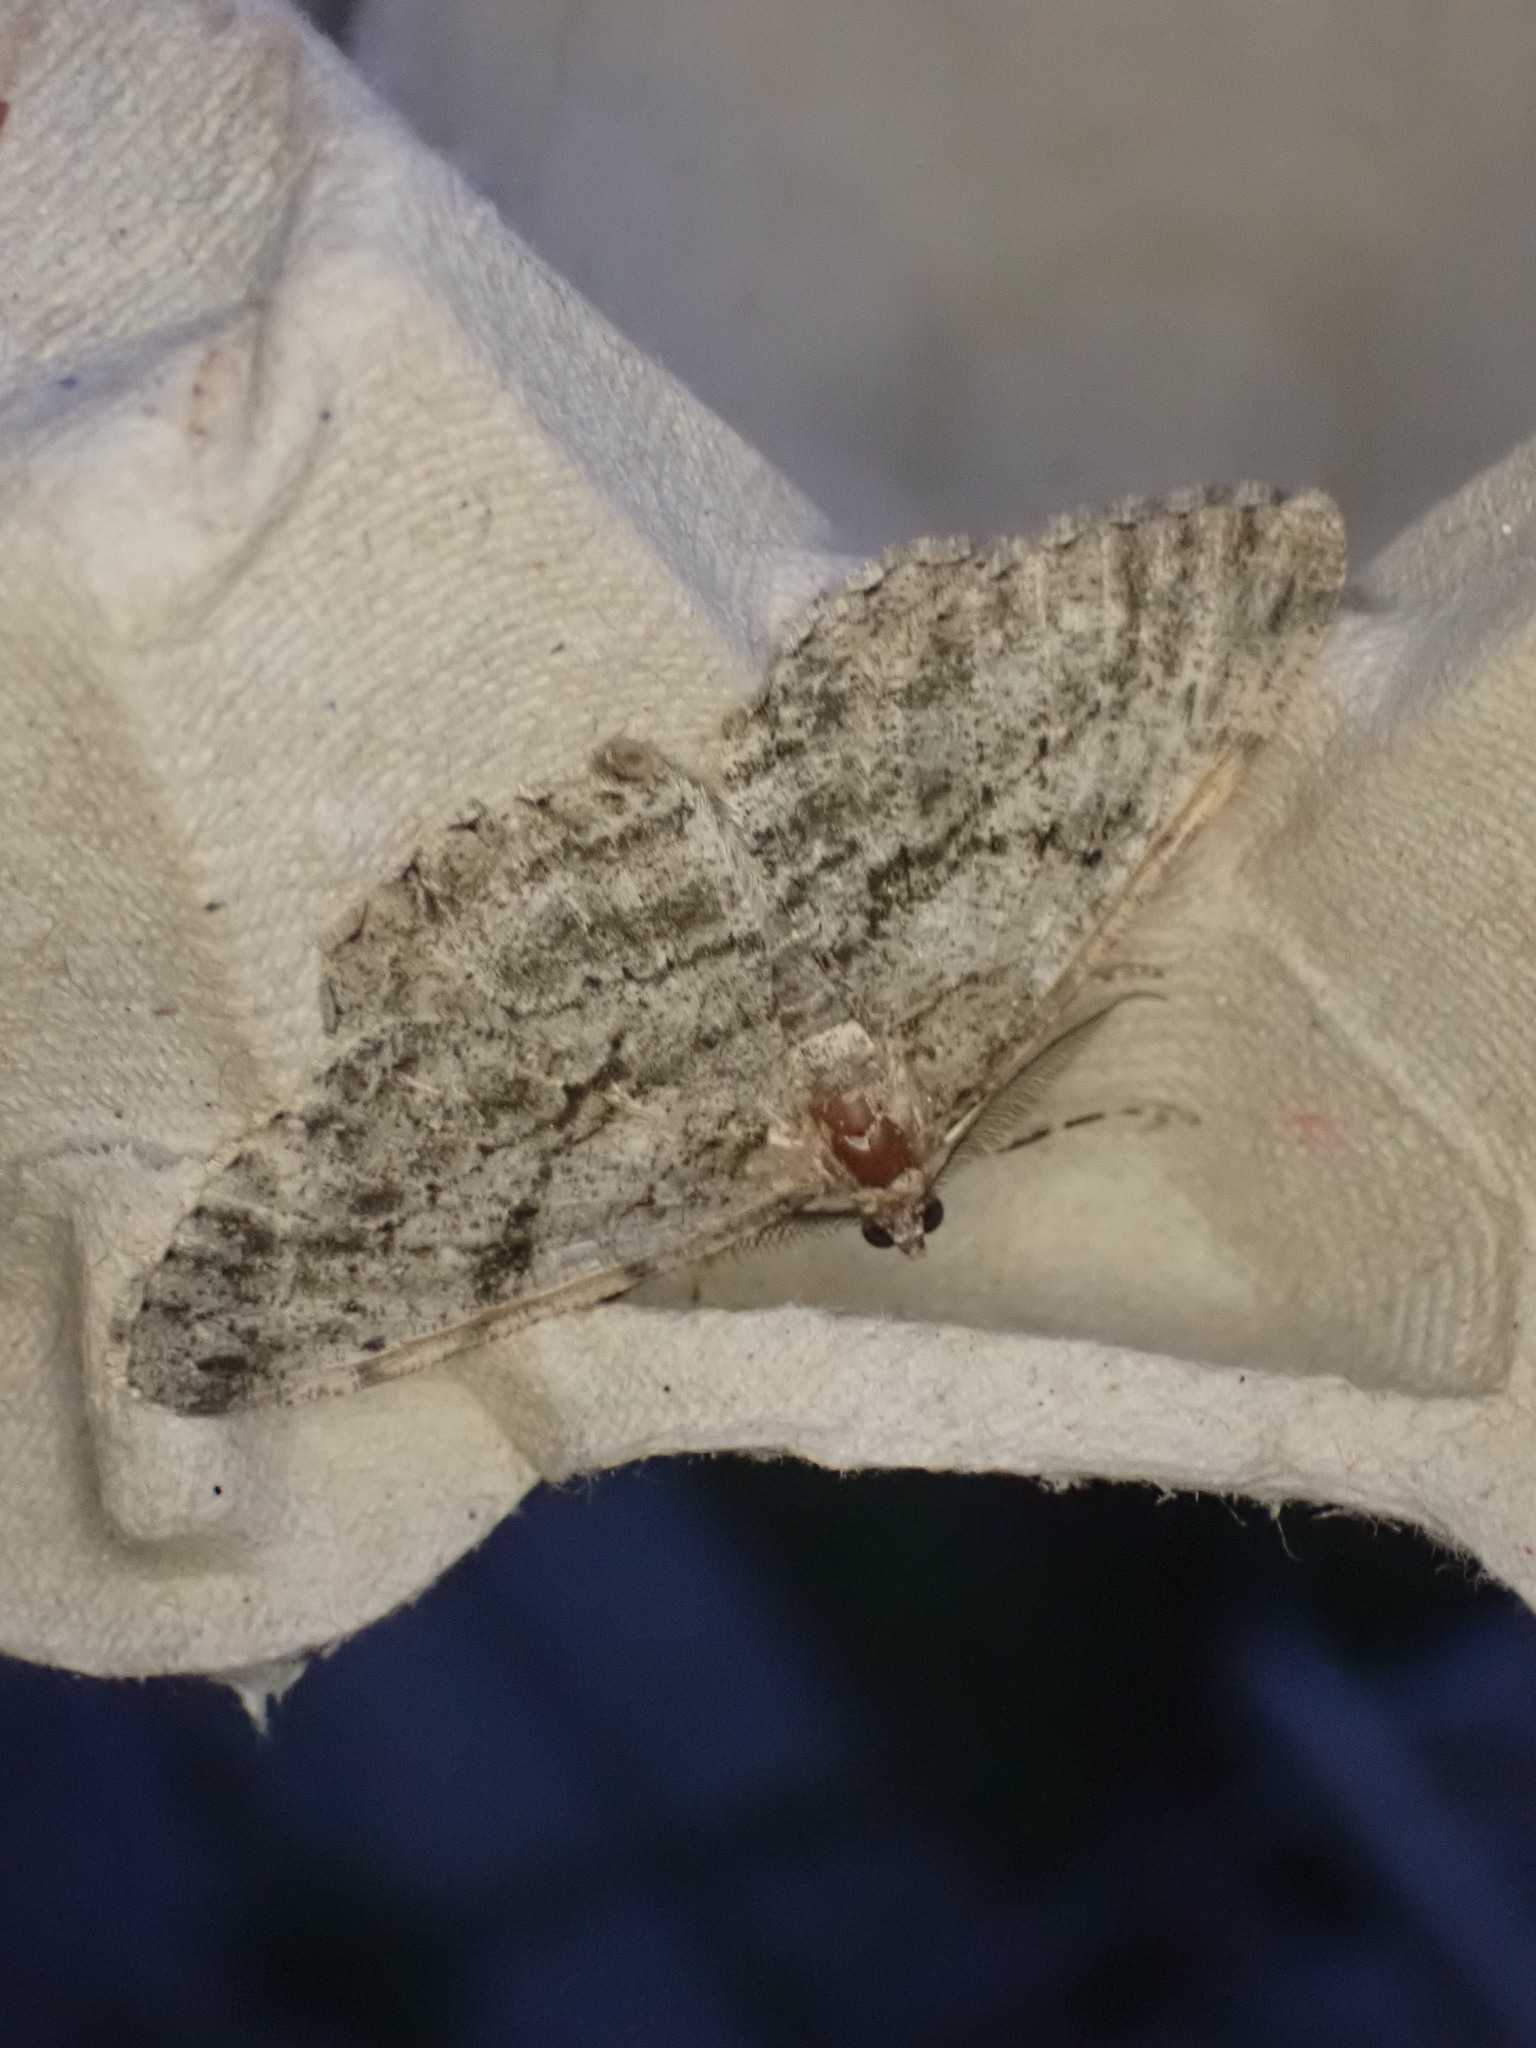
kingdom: Animalia
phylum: Arthropoda
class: Insecta
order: Lepidoptera
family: Geometridae
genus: Peribatodes
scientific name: Peribatodes rhomboidaria
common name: Willow beauty
